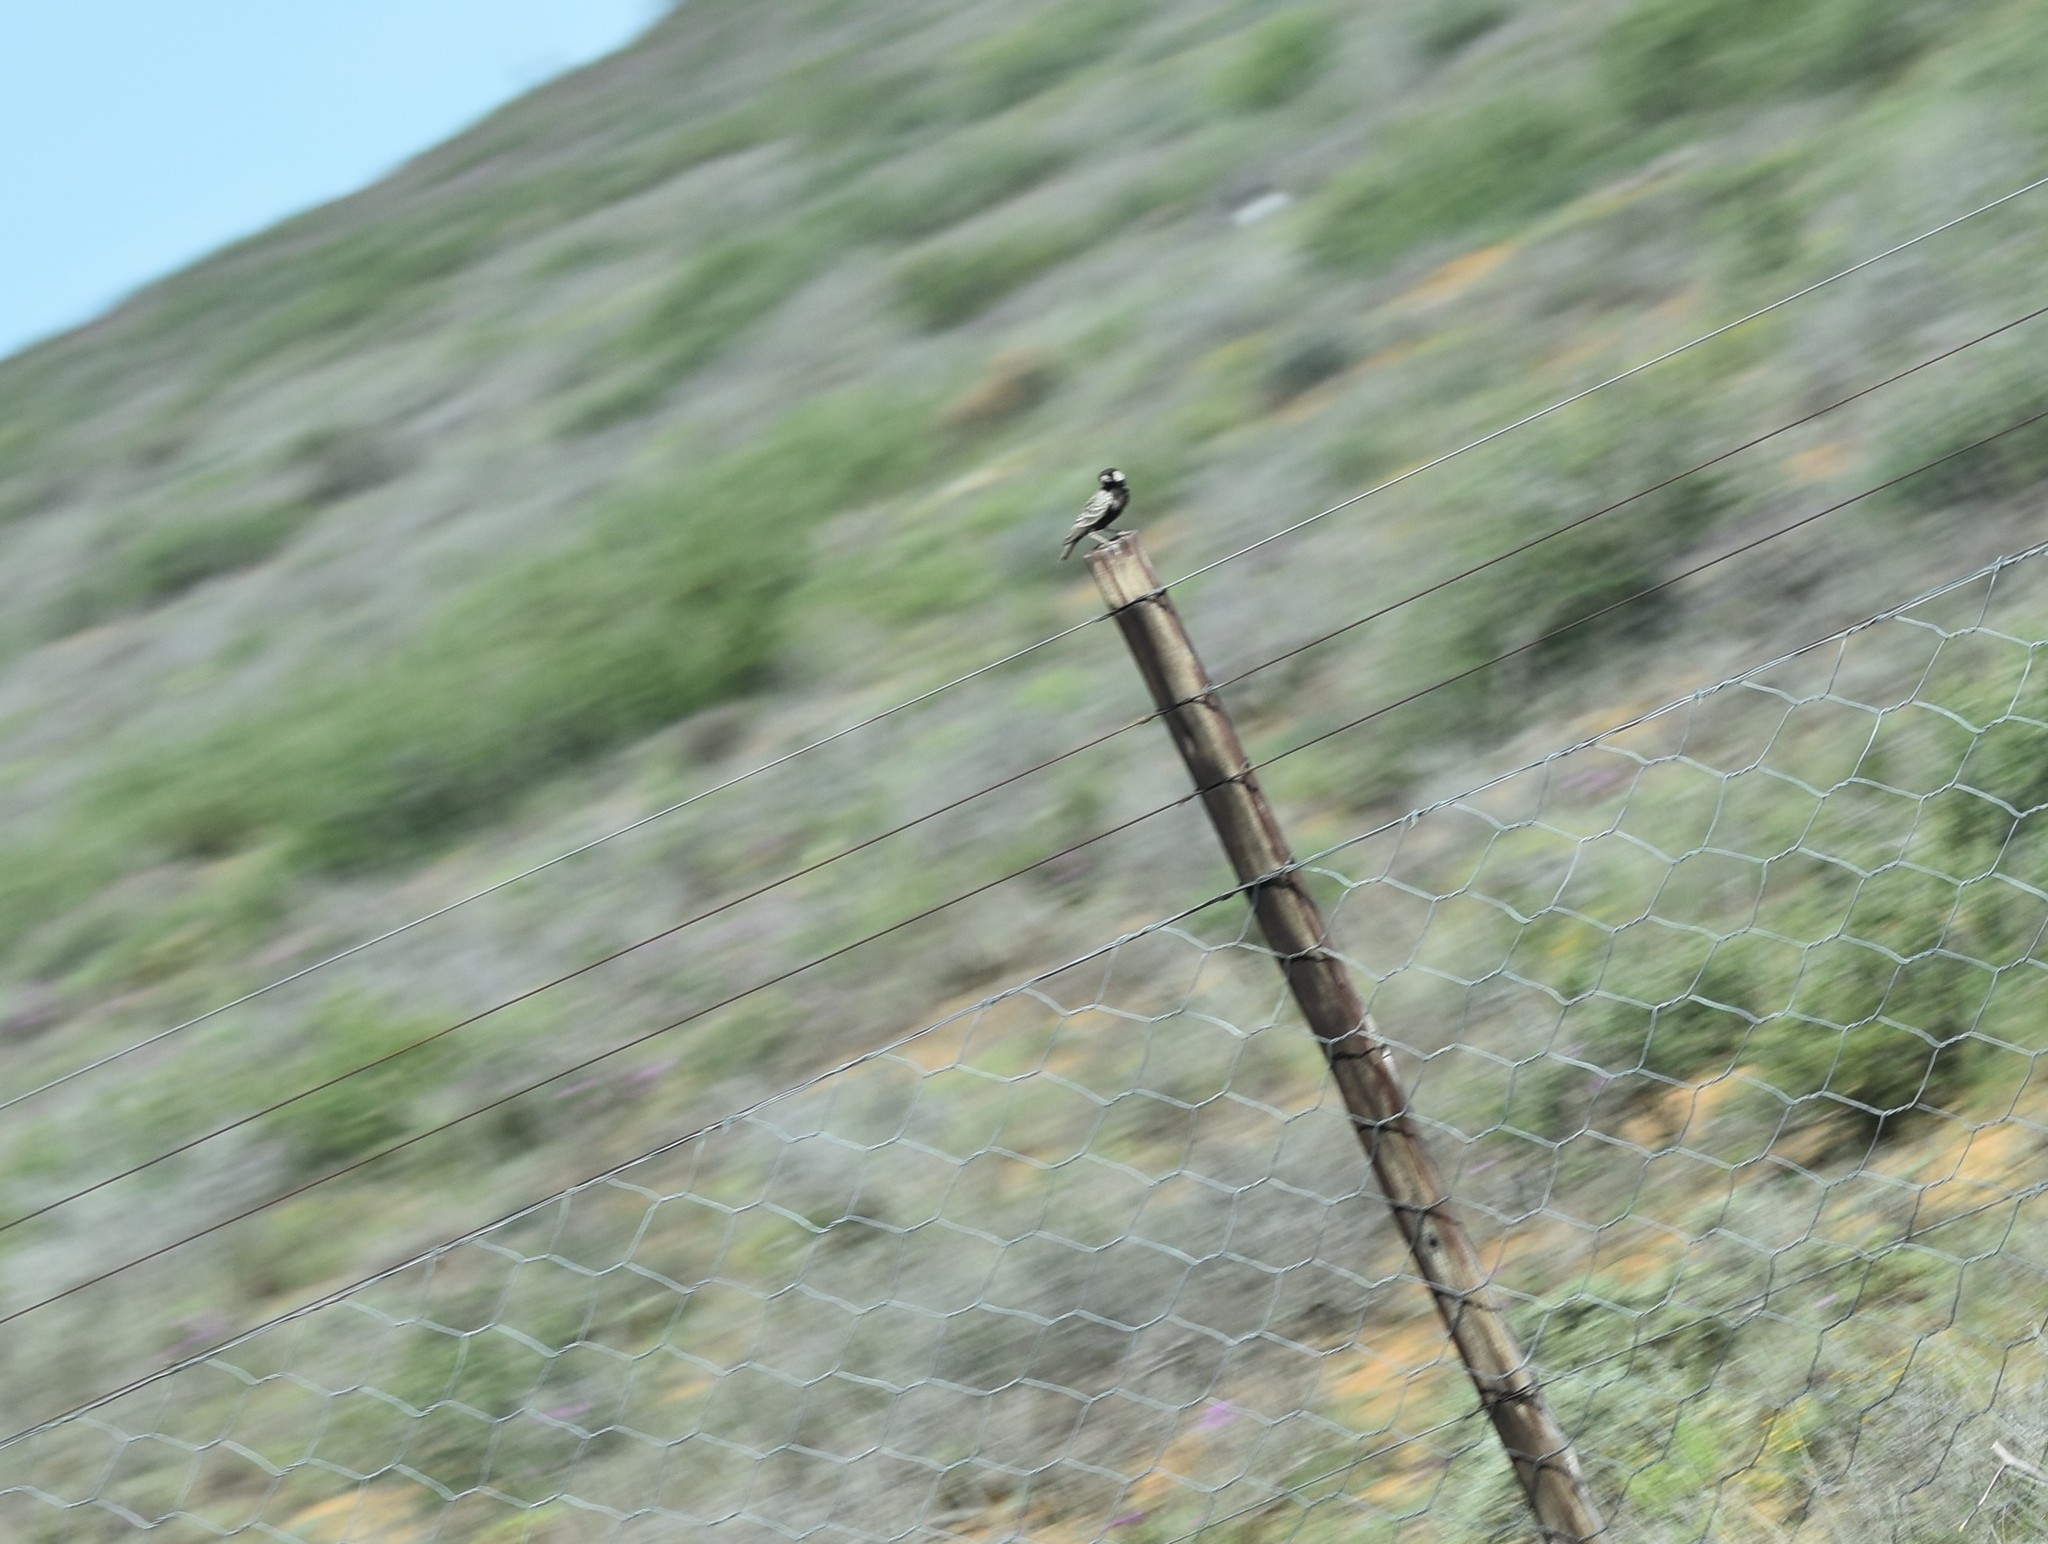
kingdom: Animalia
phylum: Chordata
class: Aves
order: Passeriformes
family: Alaudidae
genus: Eremopterix
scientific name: Eremopterix verticalis
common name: Grey-backed sparrow-lark
